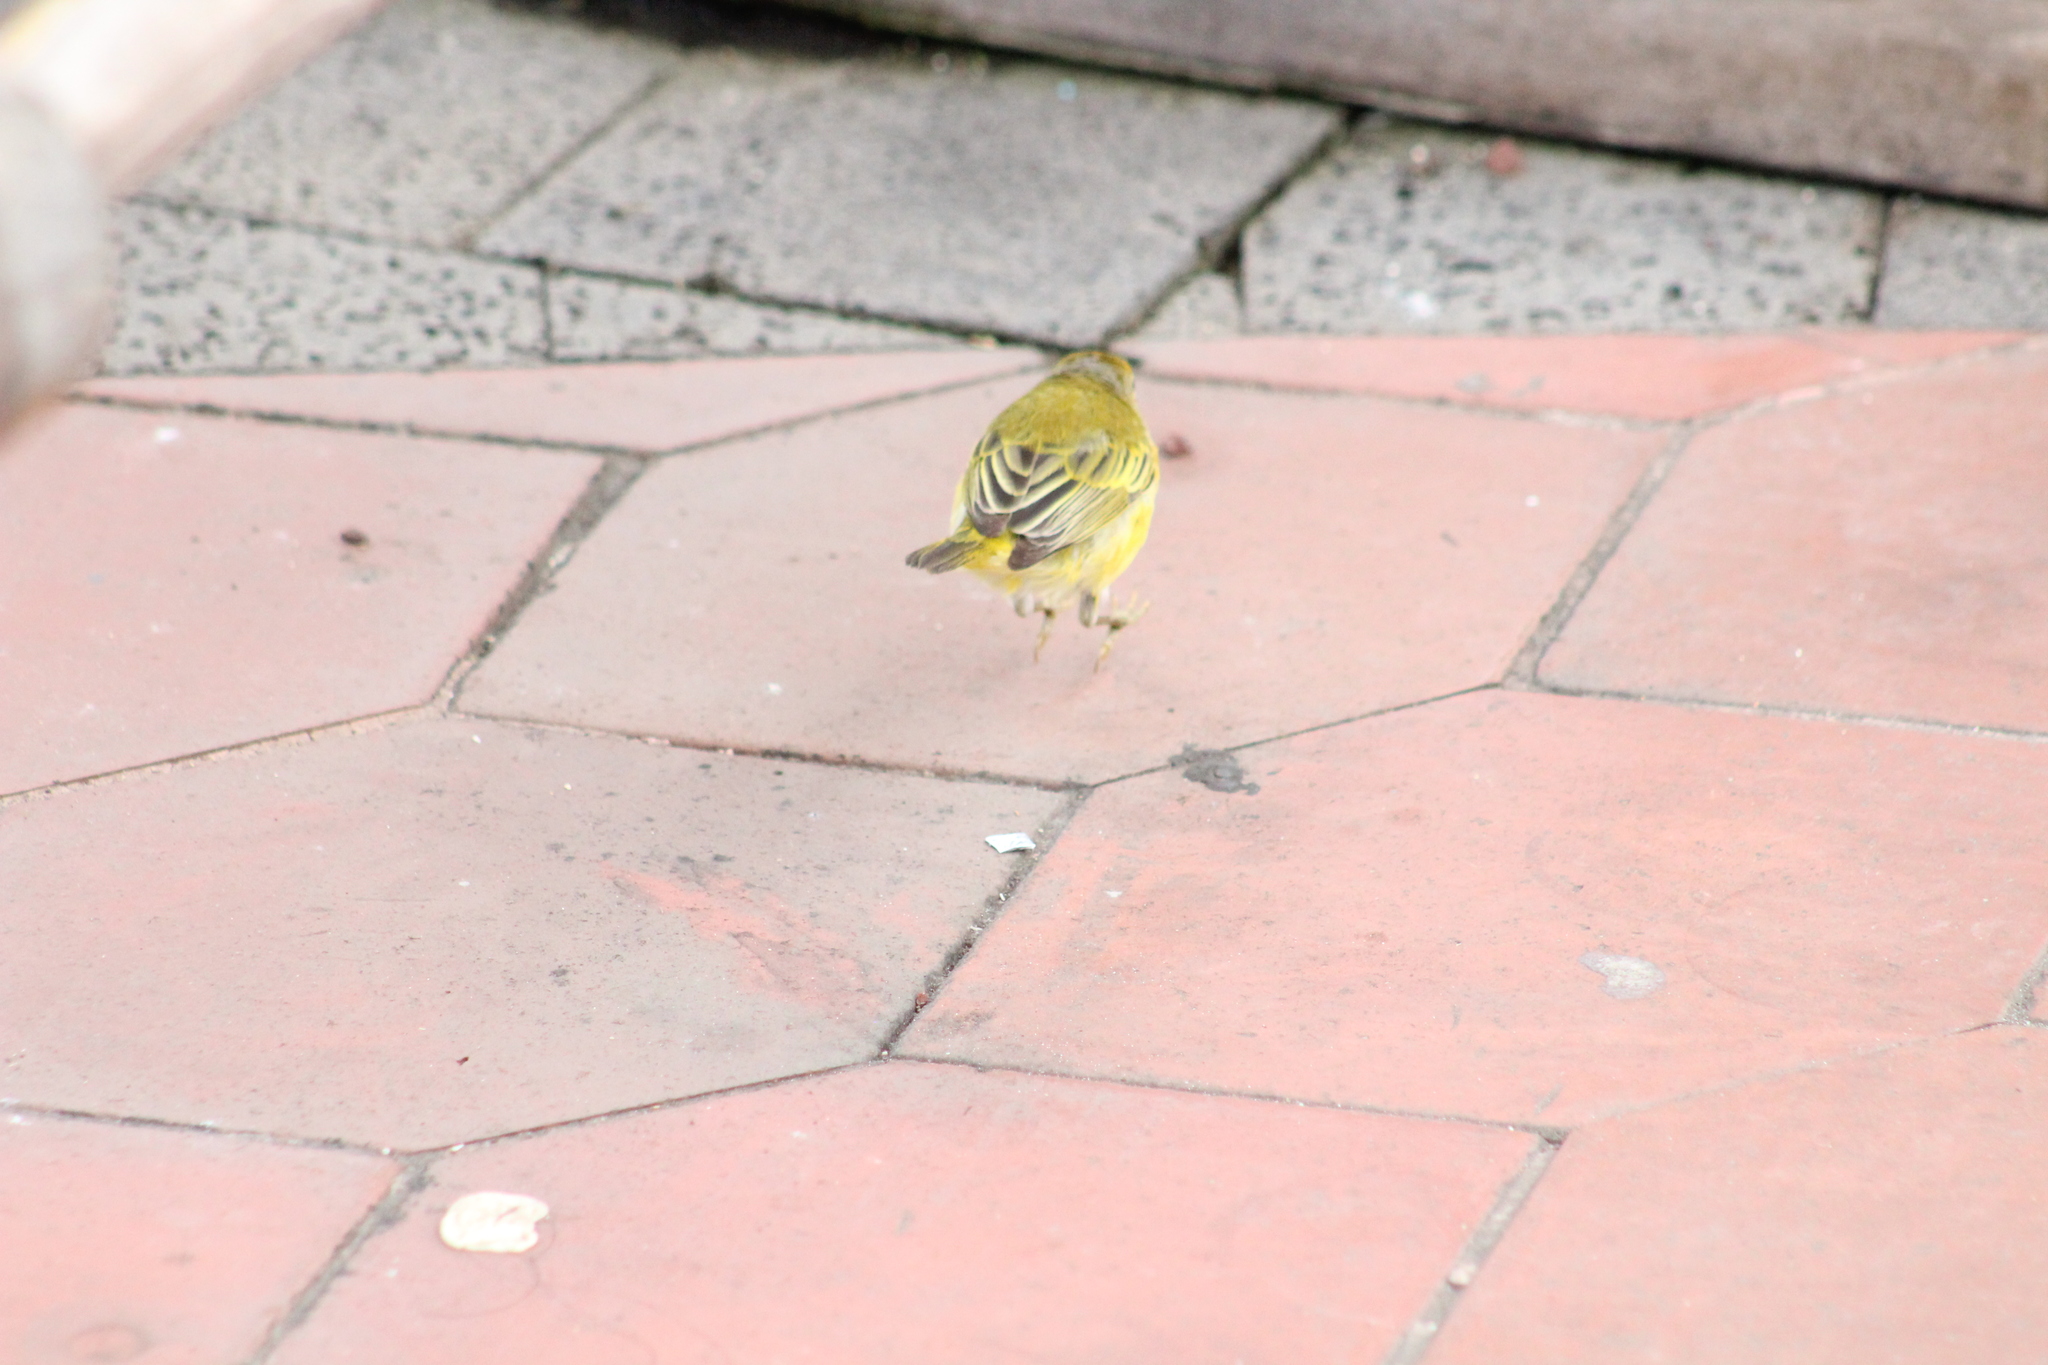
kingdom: Animalia
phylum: Chordata
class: Aves
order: Passeriformes
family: Parulidae
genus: Setophaga
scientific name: Setophaga petechia
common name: Yellow warbler
